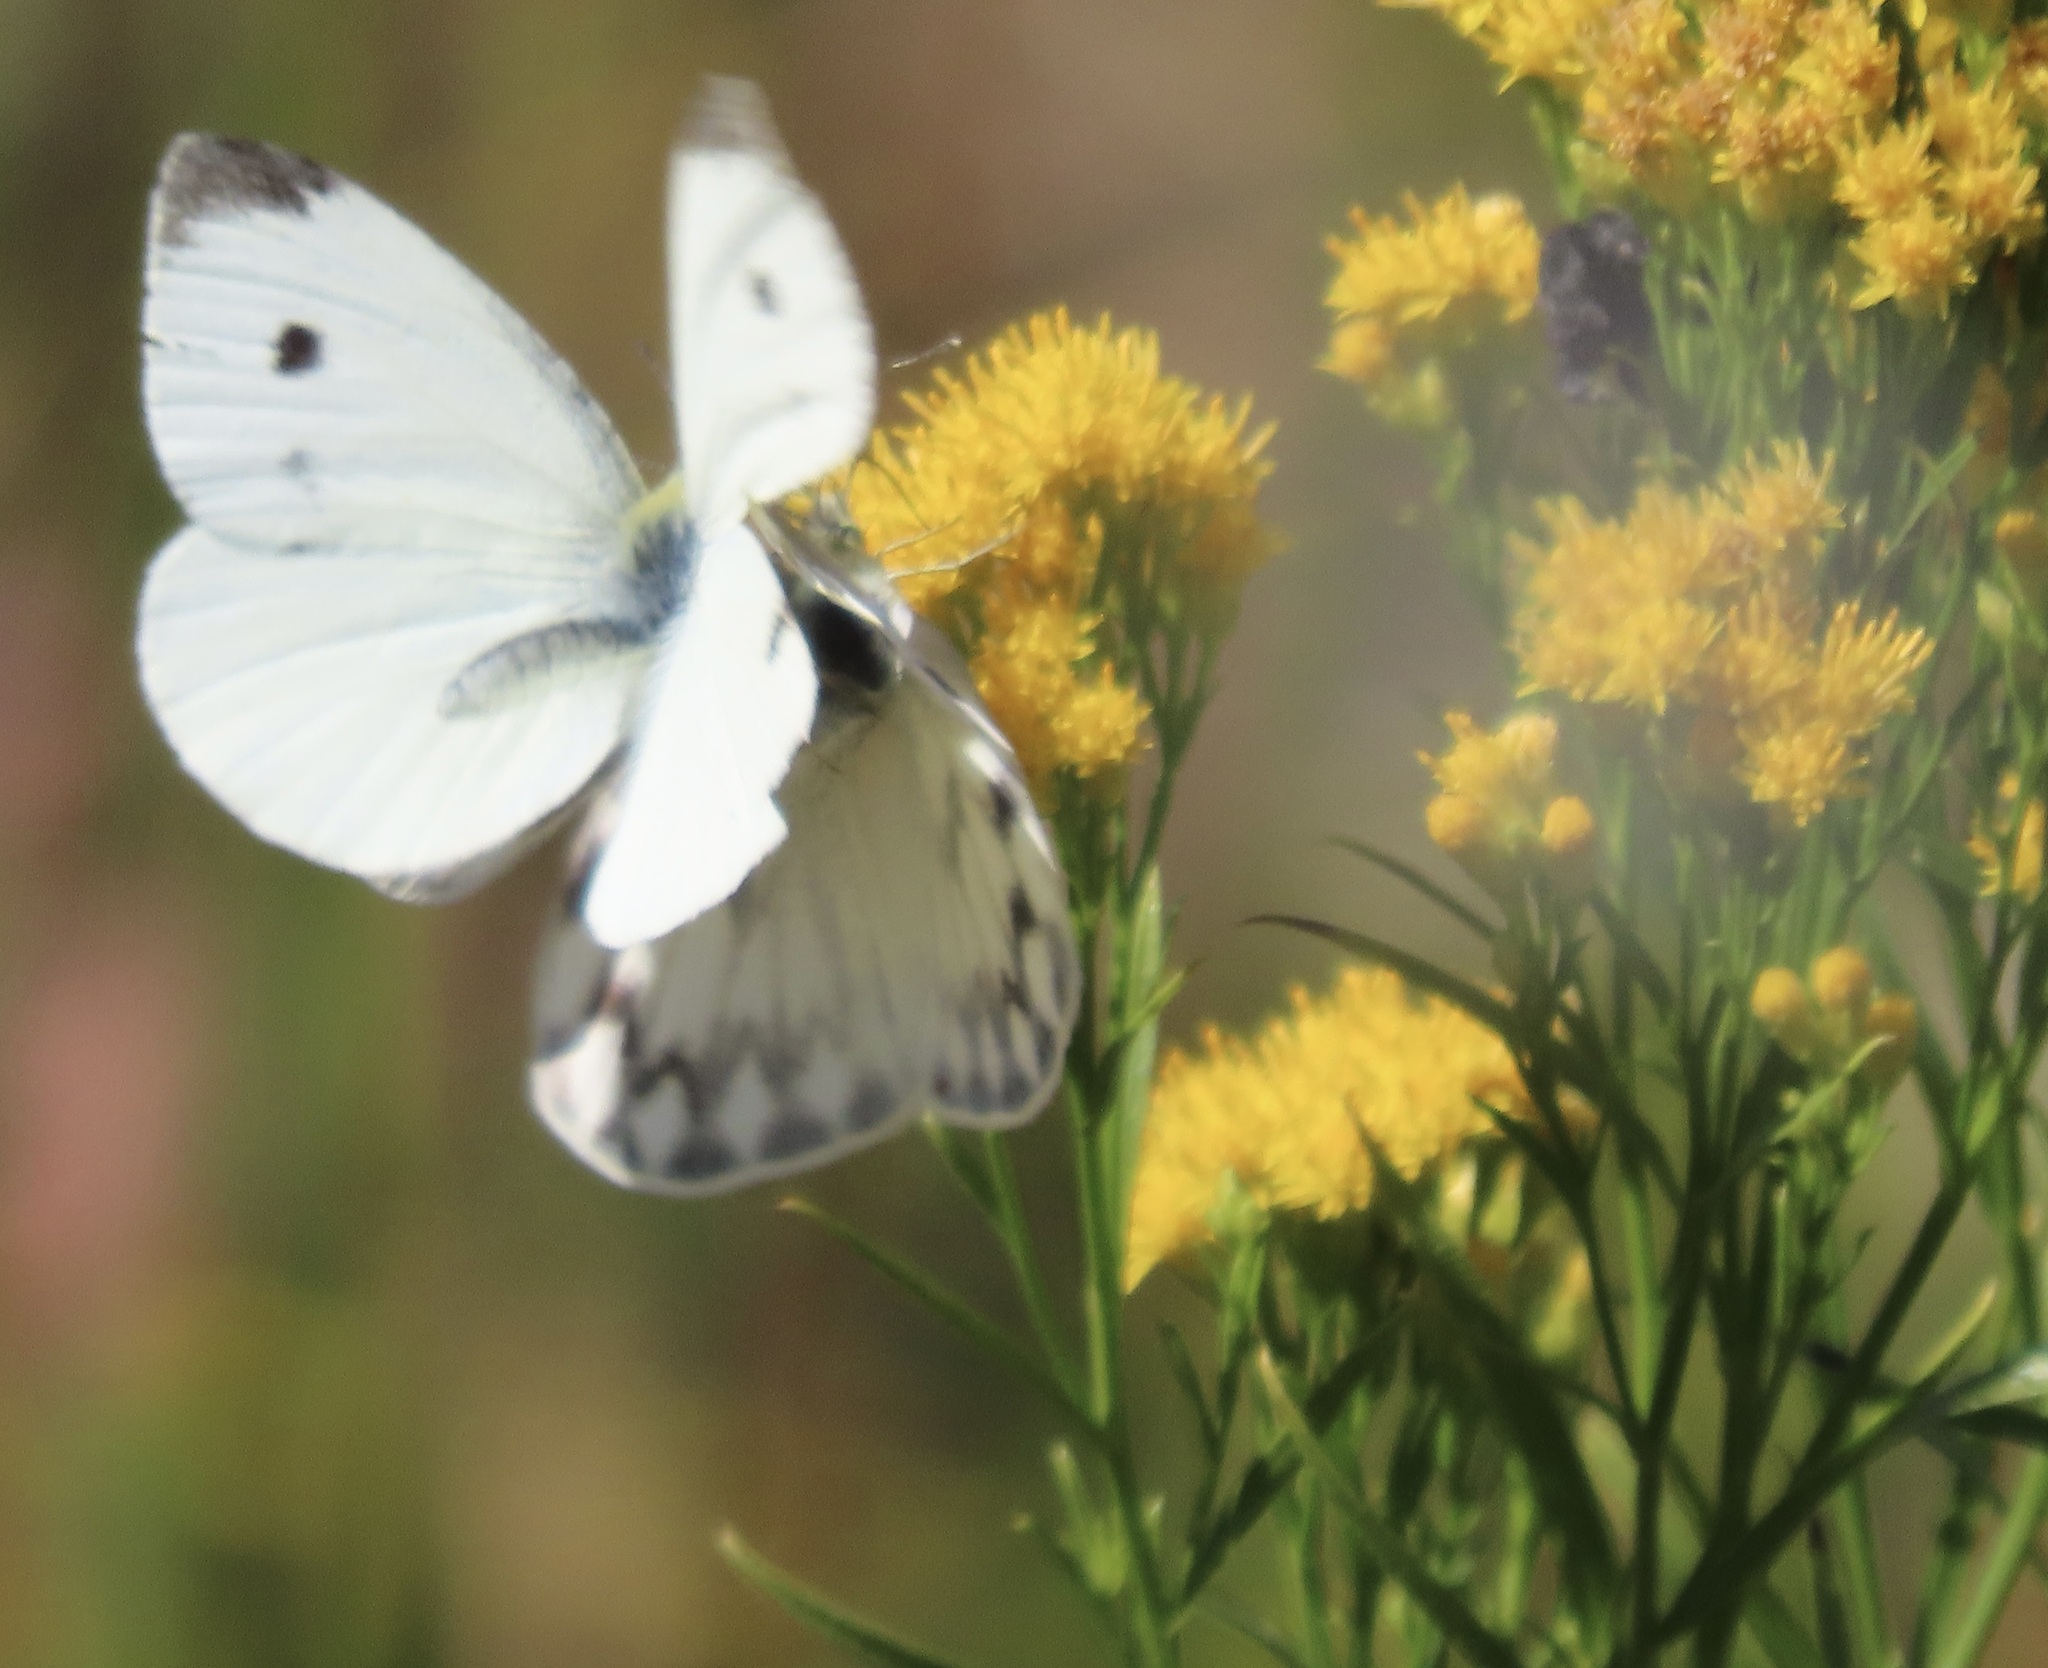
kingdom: Animalia
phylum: Arthropoda
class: Insecta
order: Lepidoptera
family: Pieridae
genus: Pontia
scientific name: Pontia protodice
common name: Checkered white
